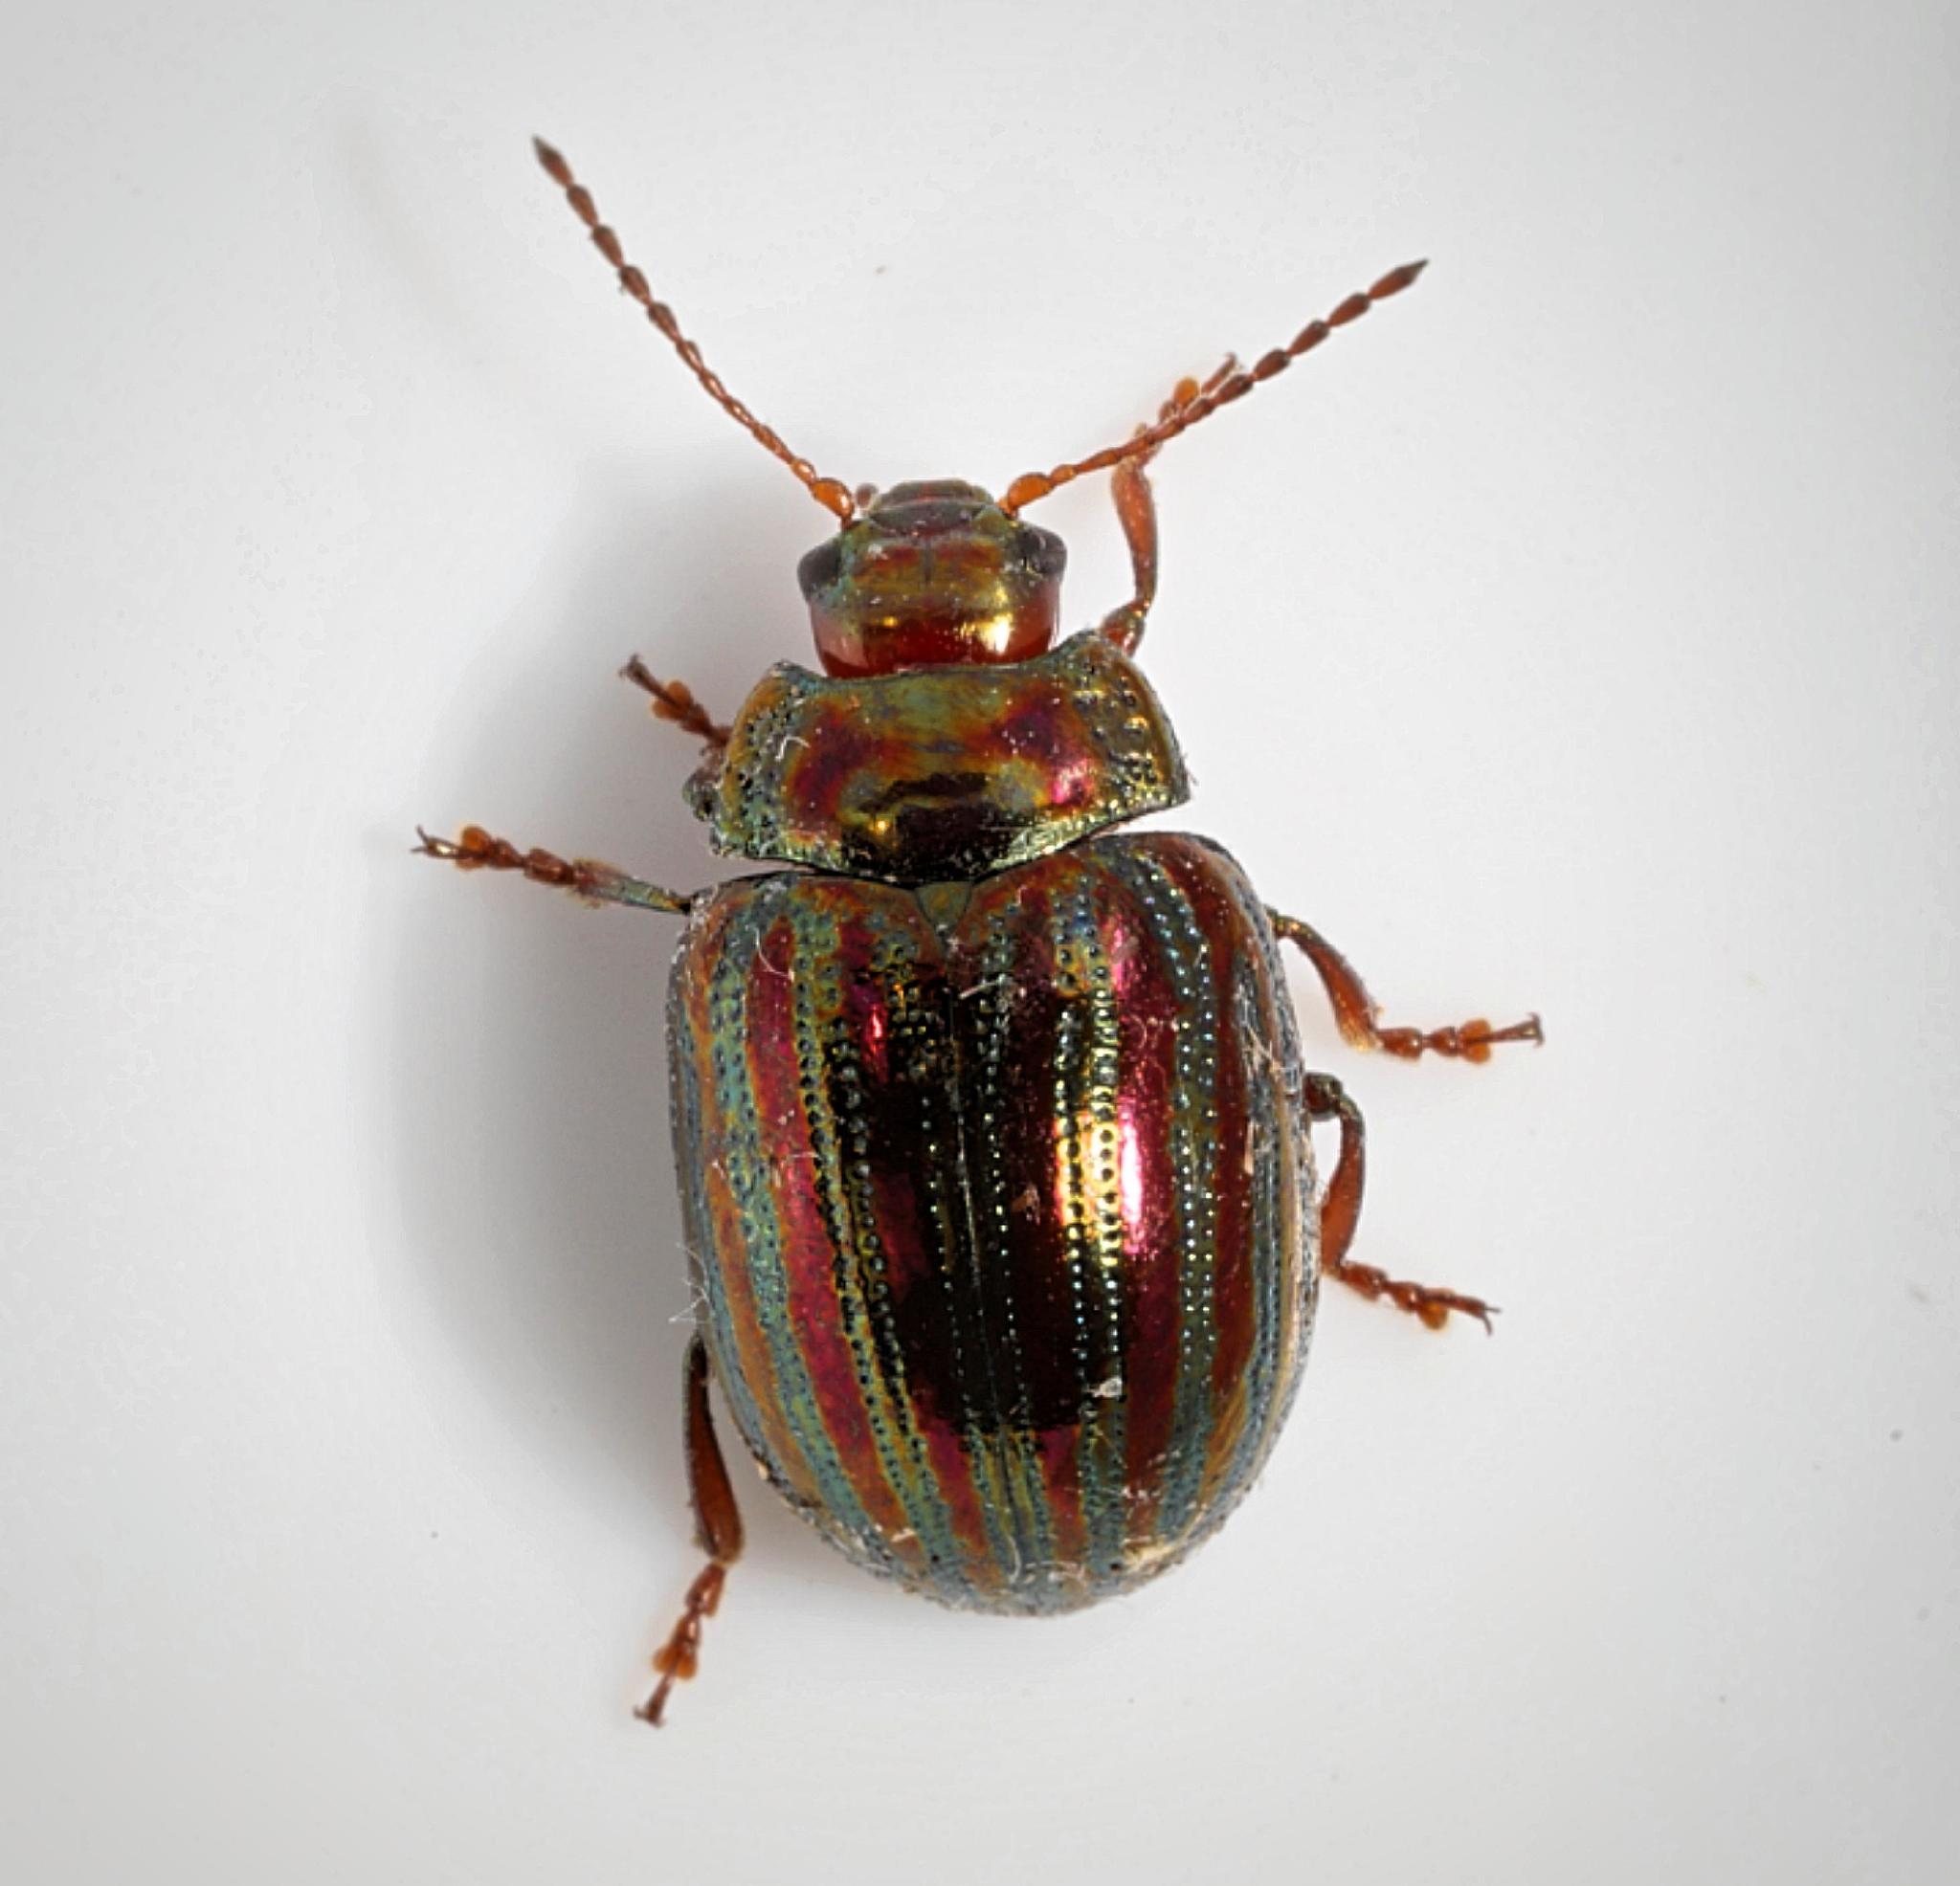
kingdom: Animalia
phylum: Arthropoda
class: Insecta
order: Coleoptera
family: Chrysomelidae
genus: Chrysolina
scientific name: Chrysolina americana
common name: Rosemary beetle
